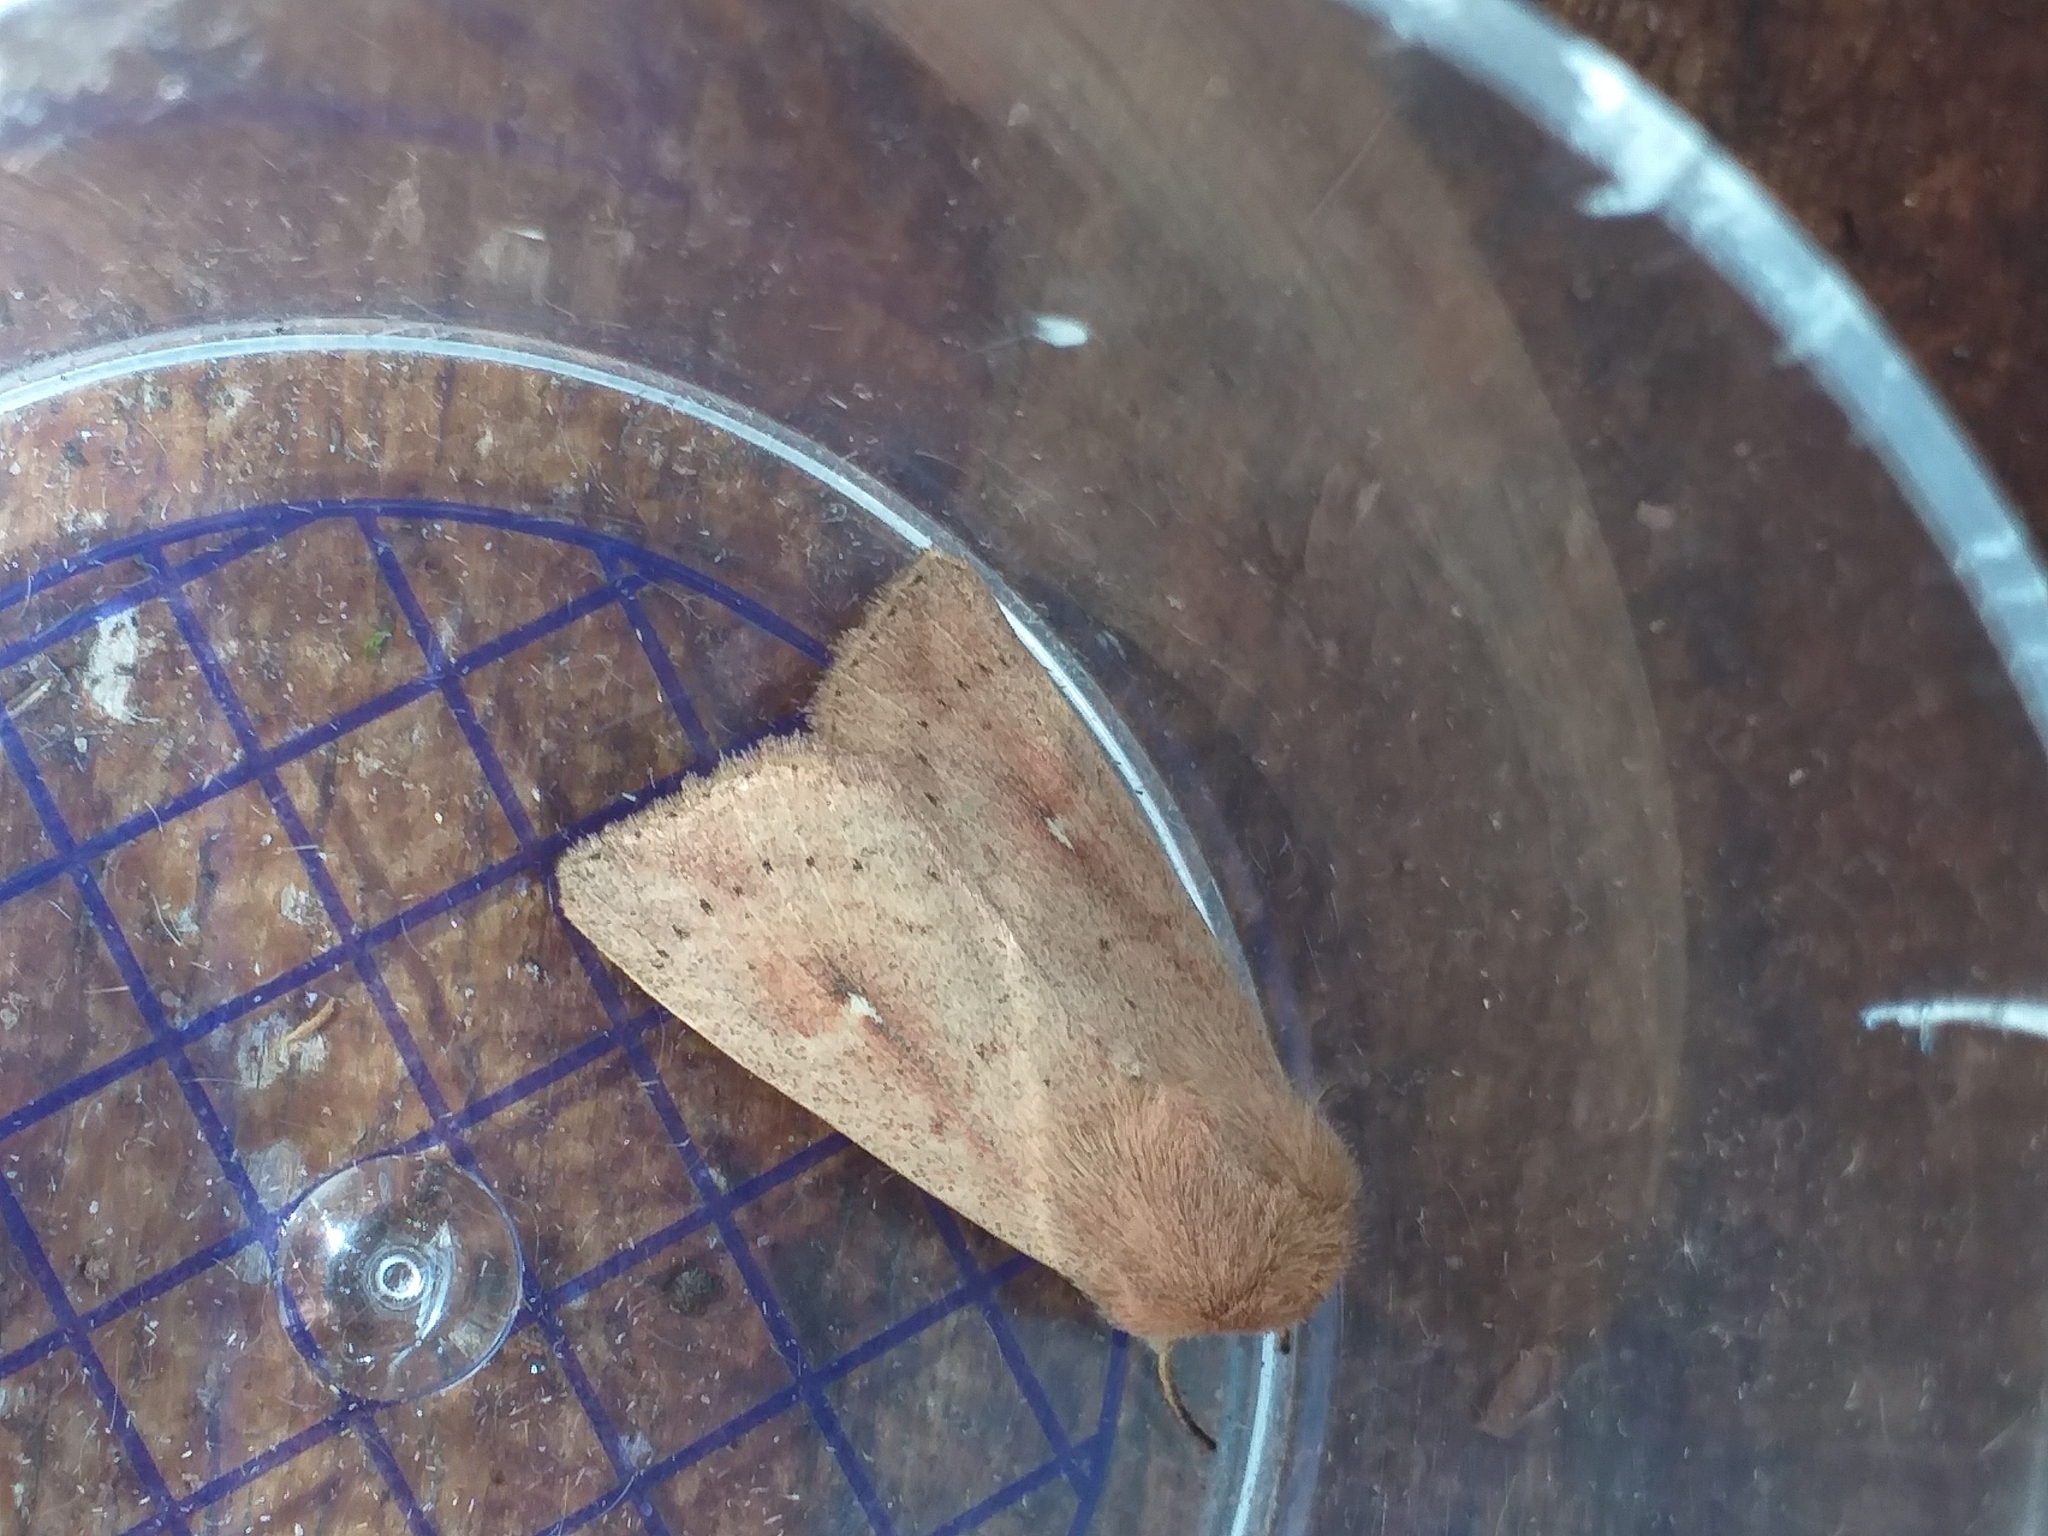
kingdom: Animalia
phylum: Arthropoda
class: Insecta
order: Lepidoptera
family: Noctuidae
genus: Mythimna
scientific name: Mythimna ferrago
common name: Clay
